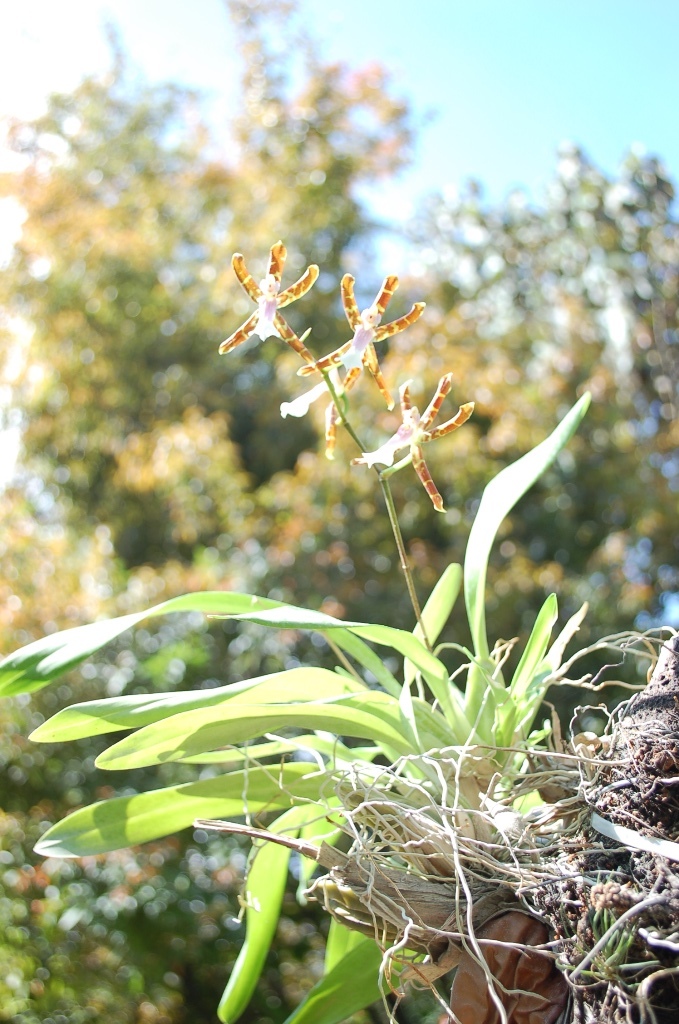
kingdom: Plantae
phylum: Tracheophyta
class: Liliopsida
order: Asparagales
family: Orchidaceae
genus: Oncidium
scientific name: Oncidium laeve
